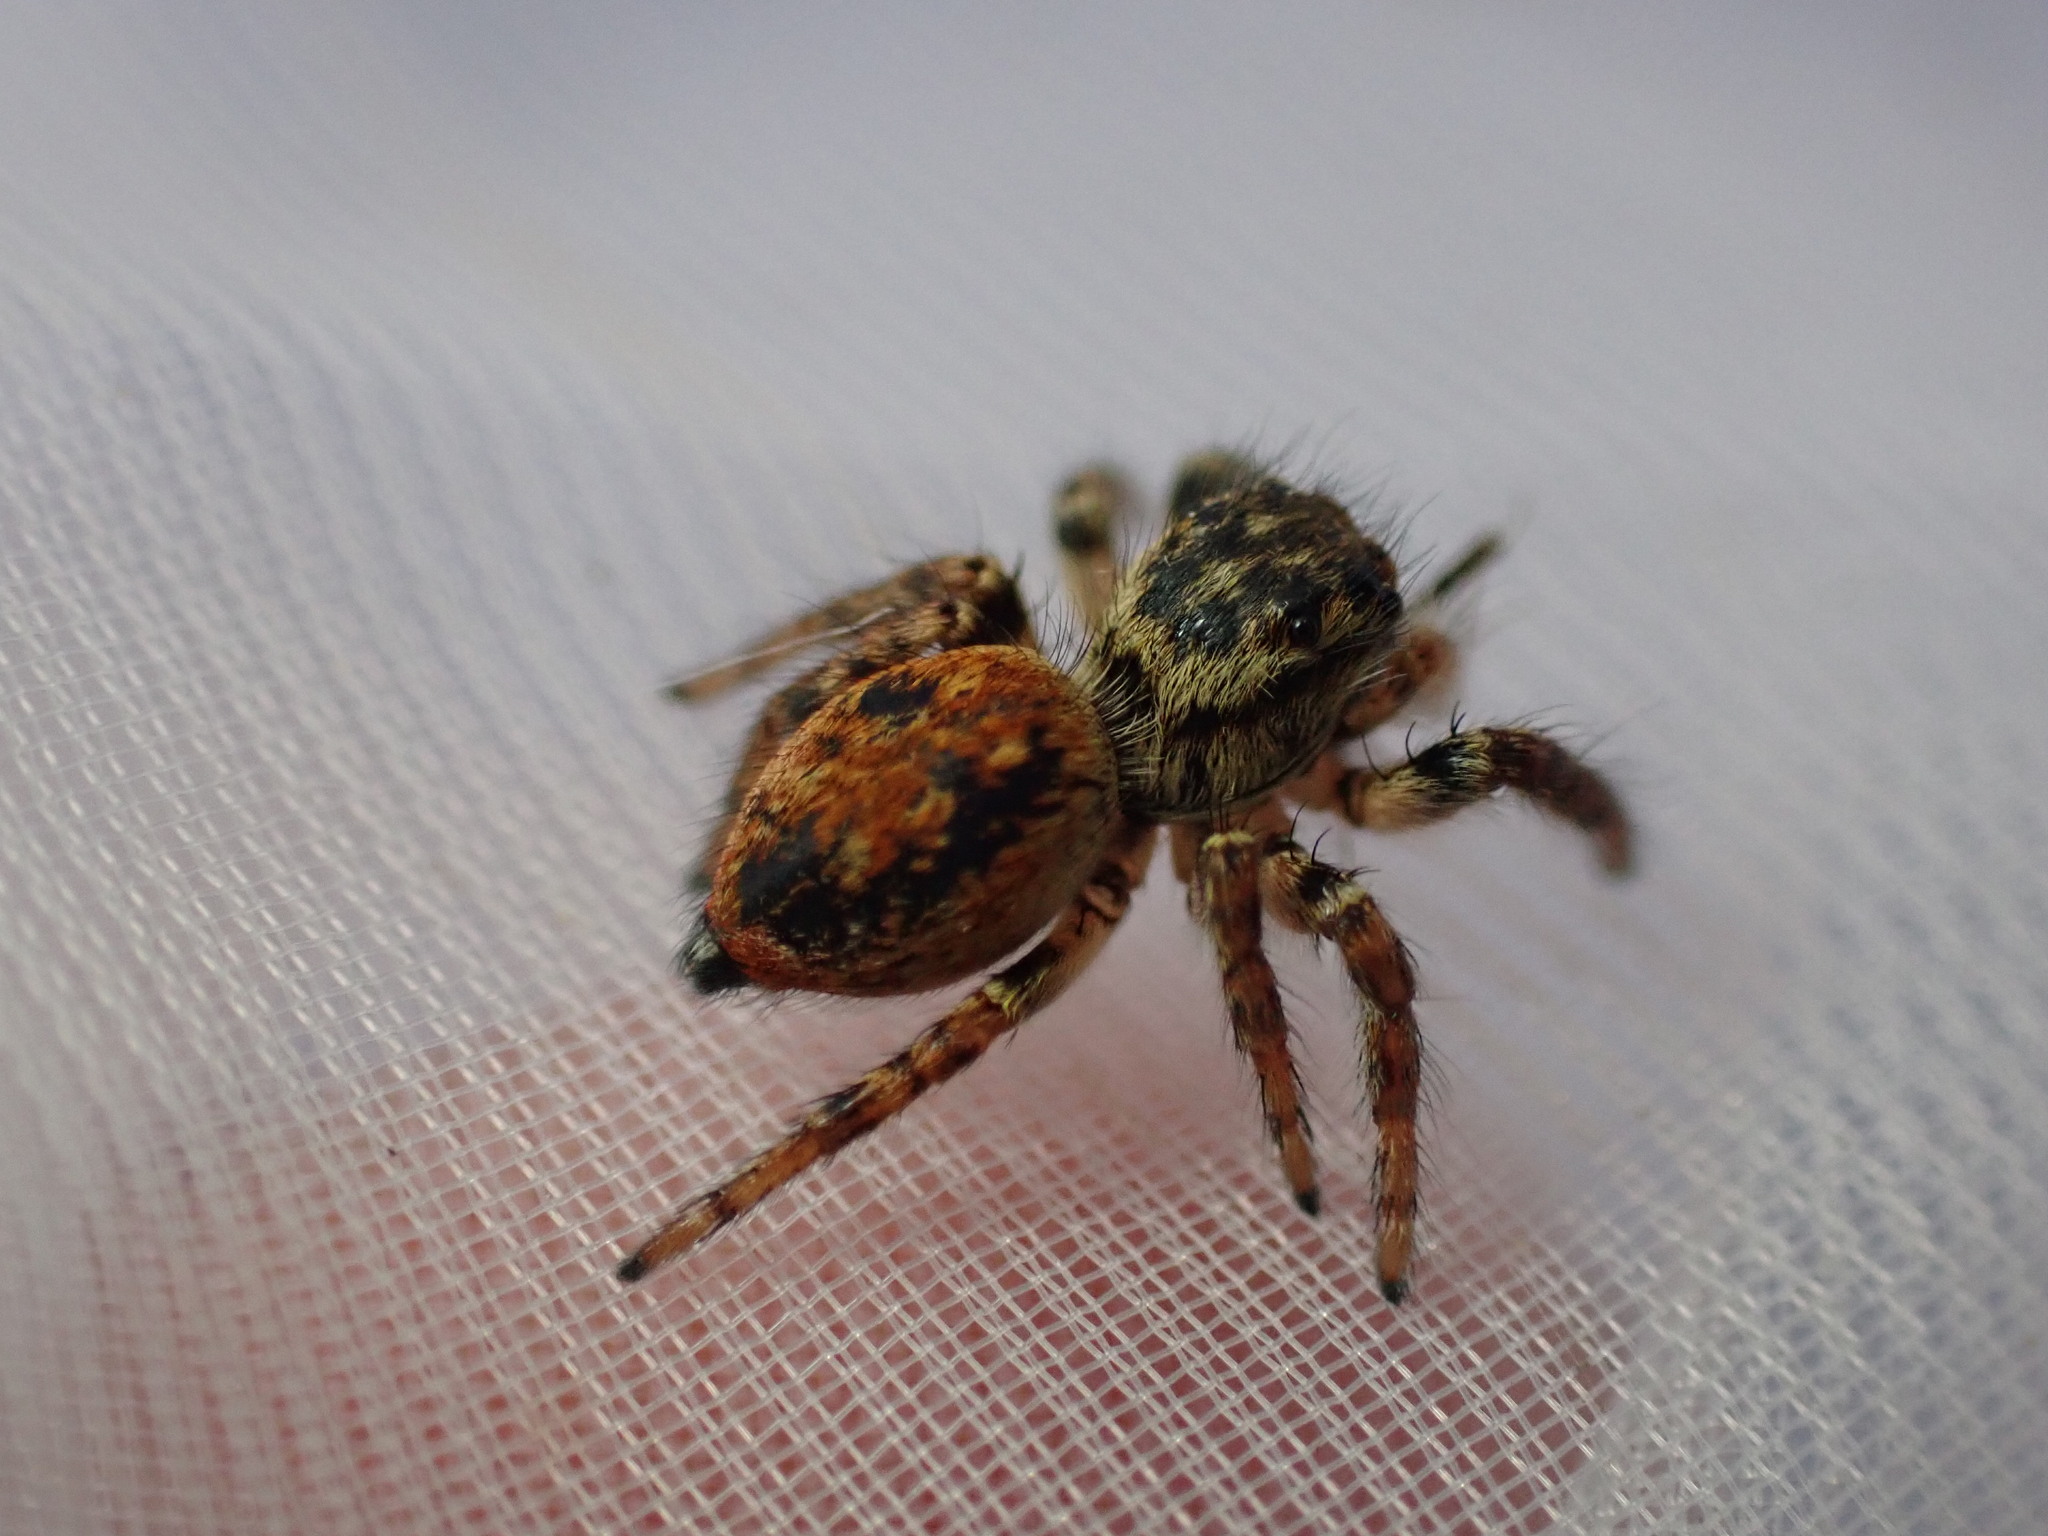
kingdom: Animalia
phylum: Arthropoda
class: Arachnida
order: Araneae
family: Salticidae
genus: Carrhotus
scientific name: Carrhotus xanthogramma
